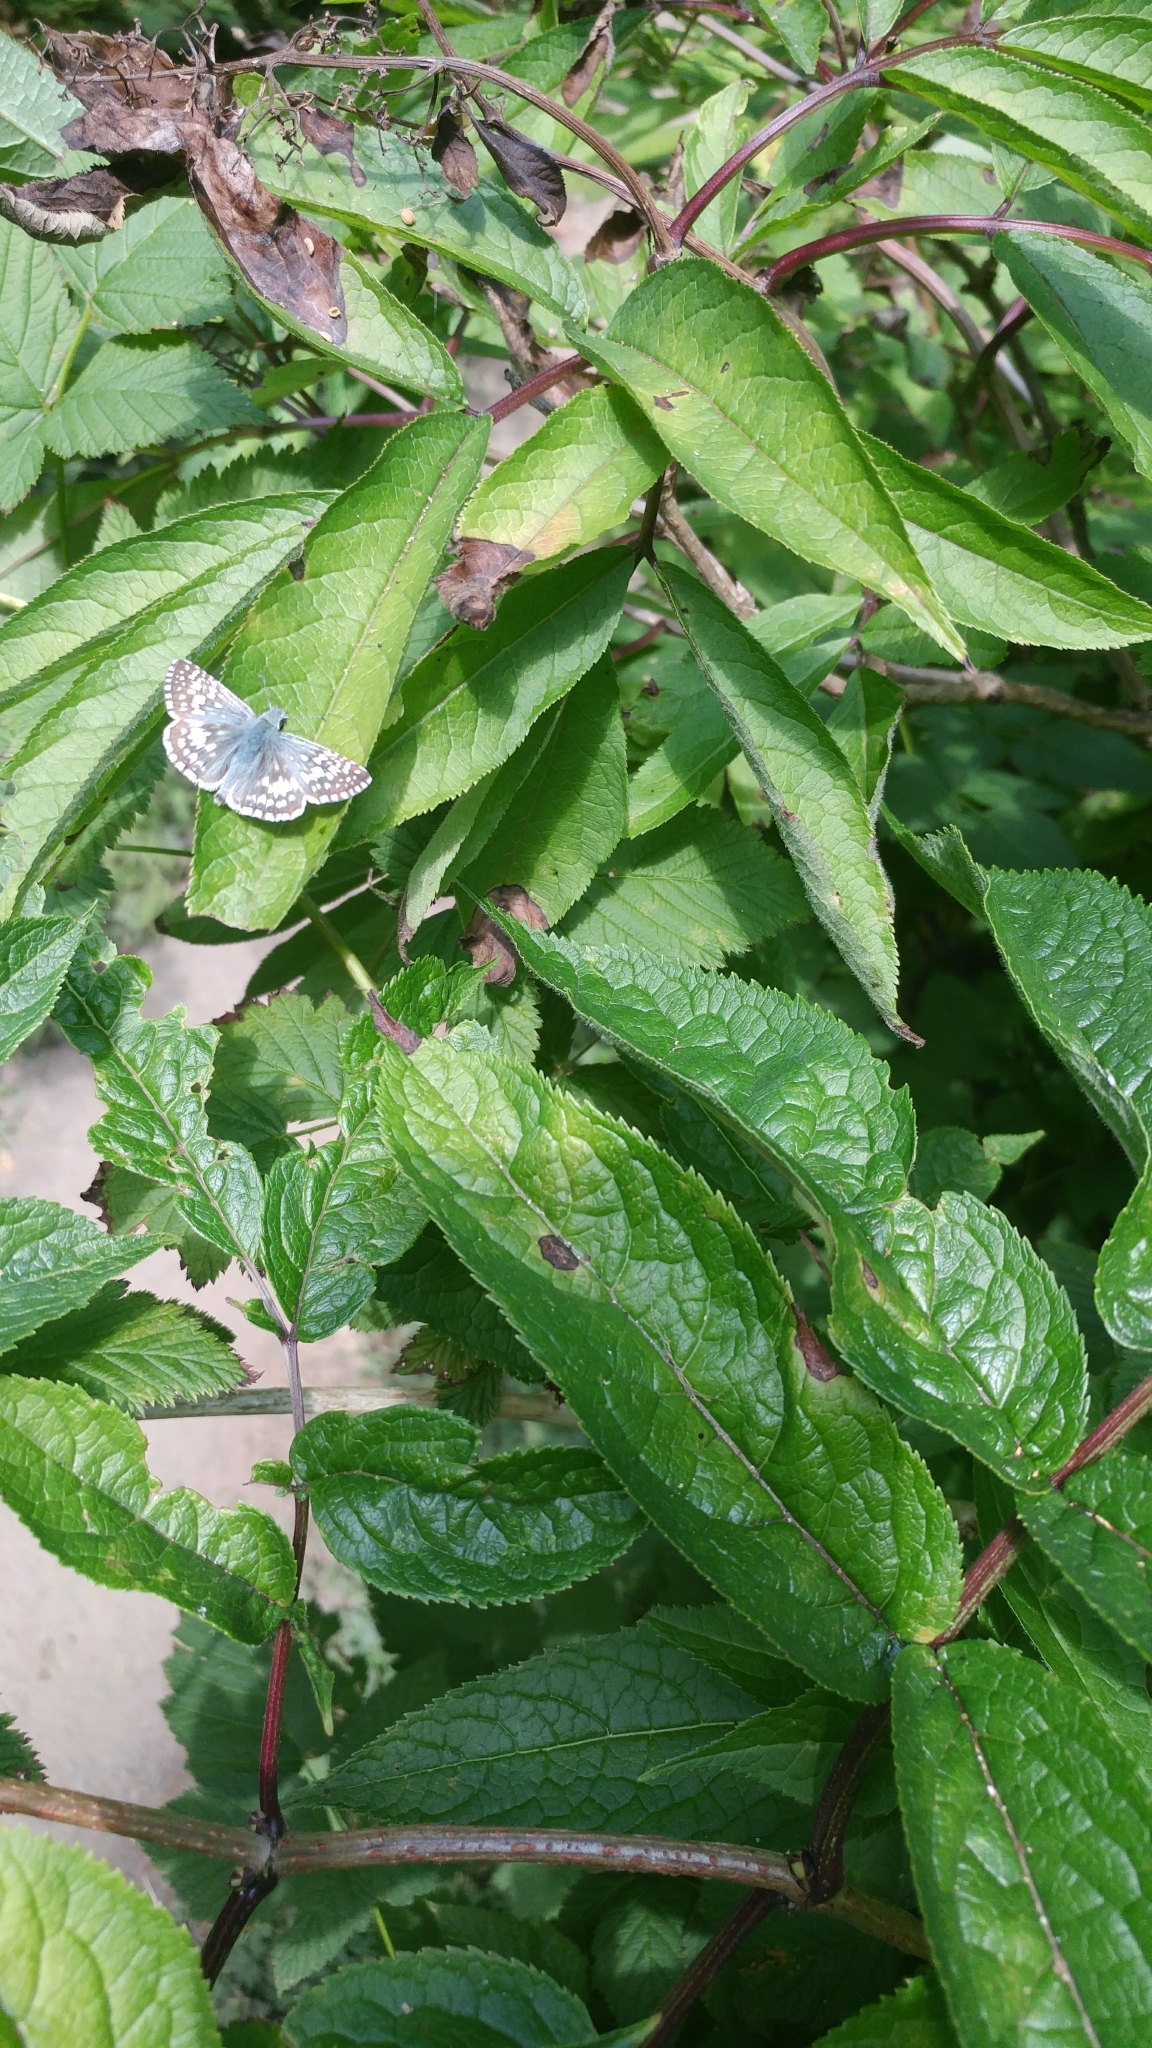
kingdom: Animalia
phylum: Arthropoda
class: Insecta
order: Lepidoptera
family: Hesperiidae
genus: Burnsius
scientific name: Burnsius communis
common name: Common checkered-skipper
